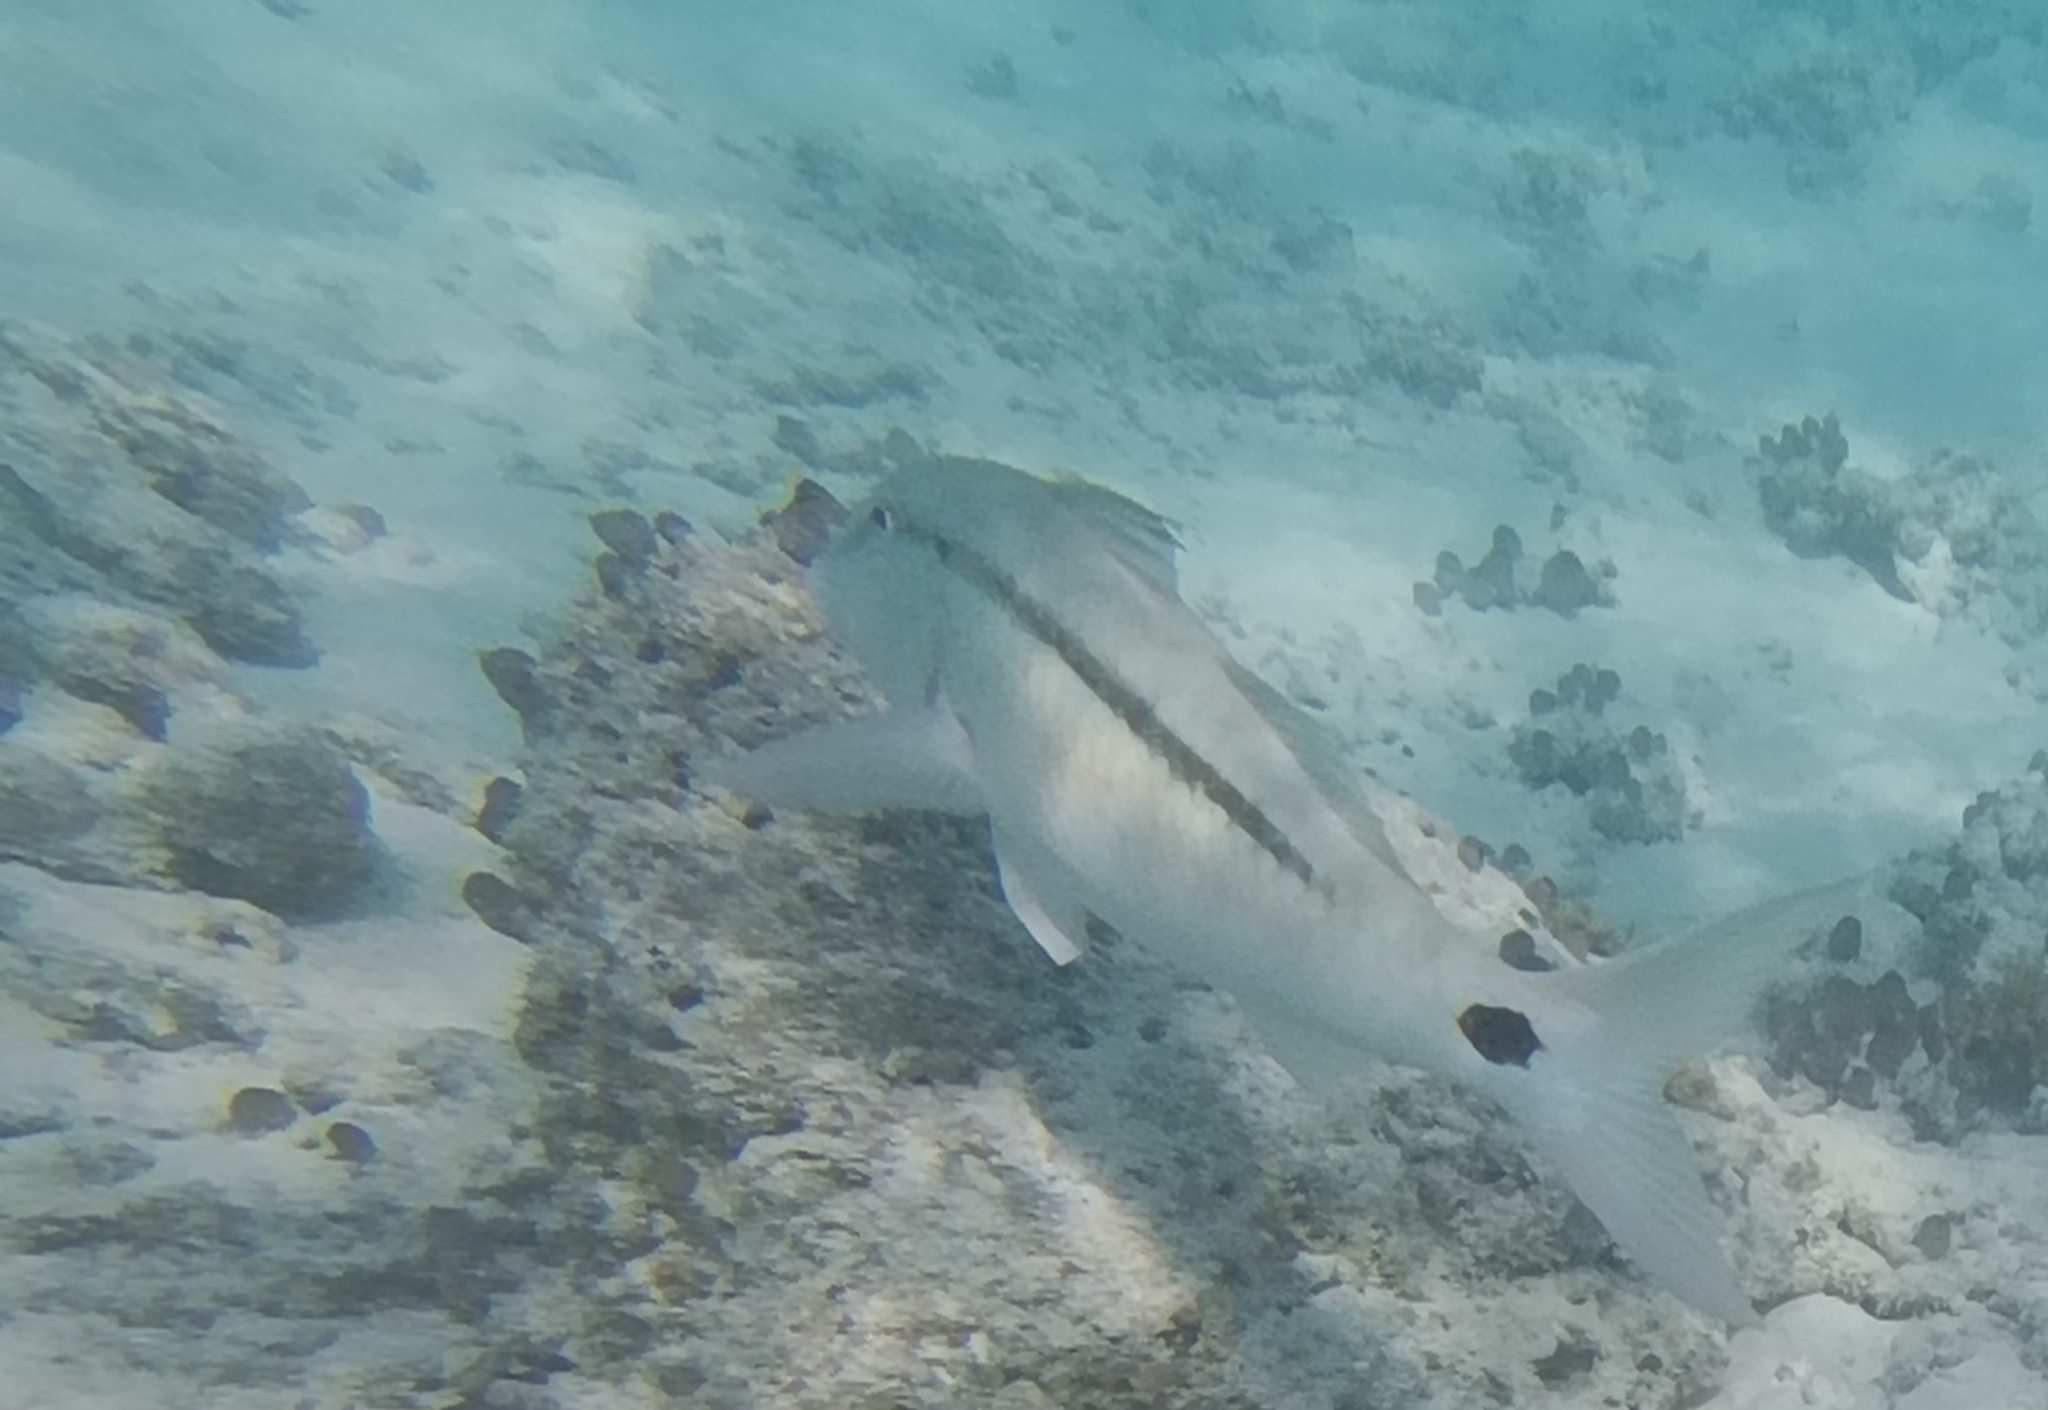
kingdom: Animalia
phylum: Chordata
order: Perciformes
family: Mullidae
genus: Parupeneus
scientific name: Parupeneus barberinus
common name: Dash-and-dot goatfish
